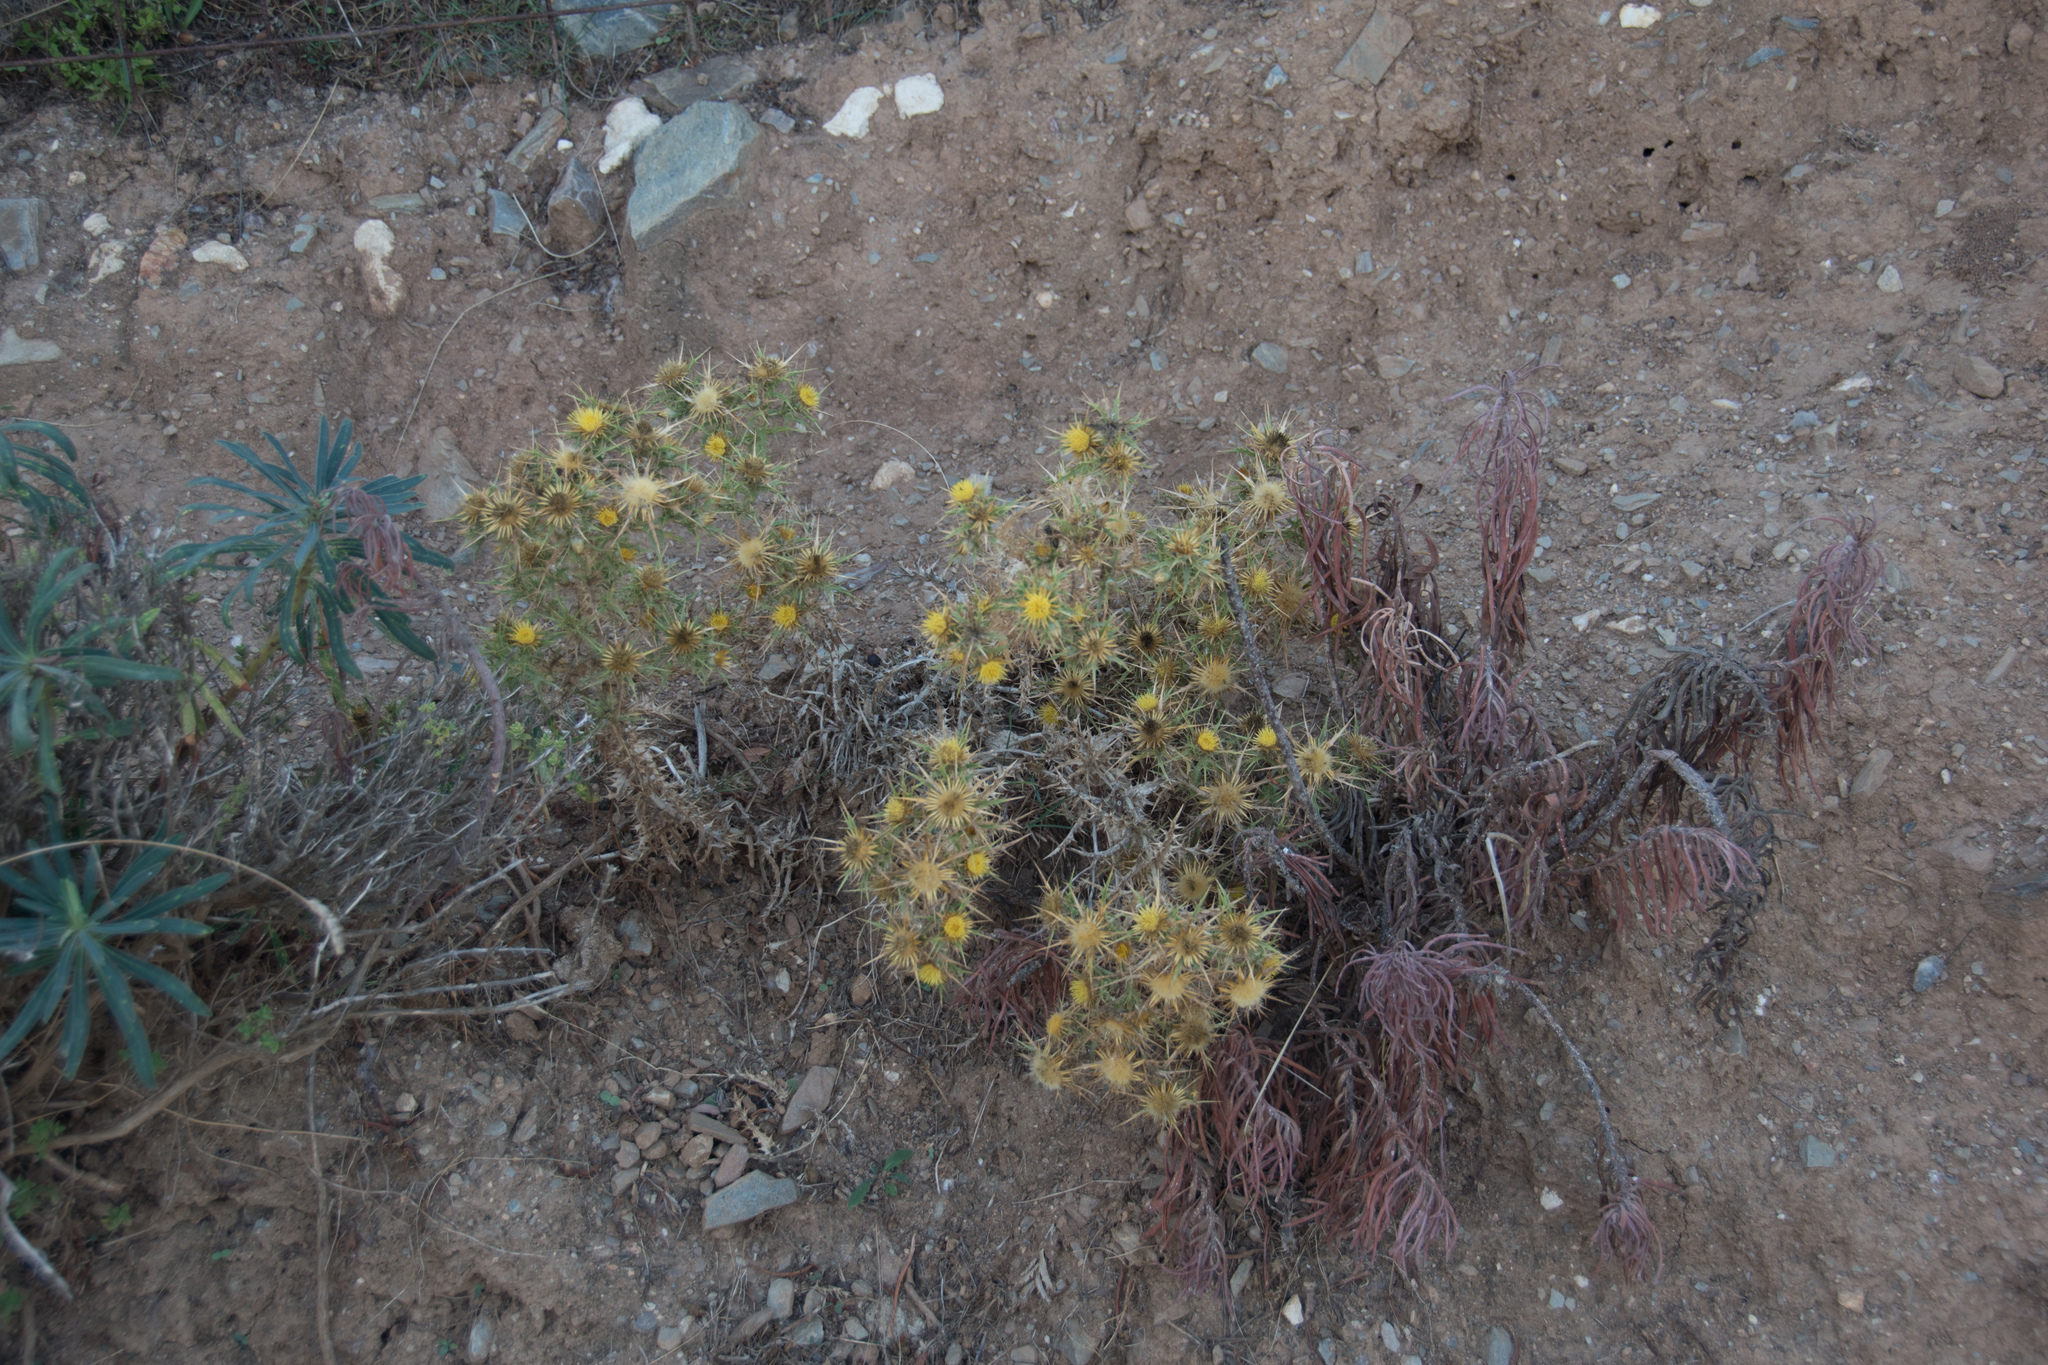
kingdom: Plantae
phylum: Tracheophyta
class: Magnoliopsida
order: Asterales
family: Asteraceae
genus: Carlina
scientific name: Carlina graeca
